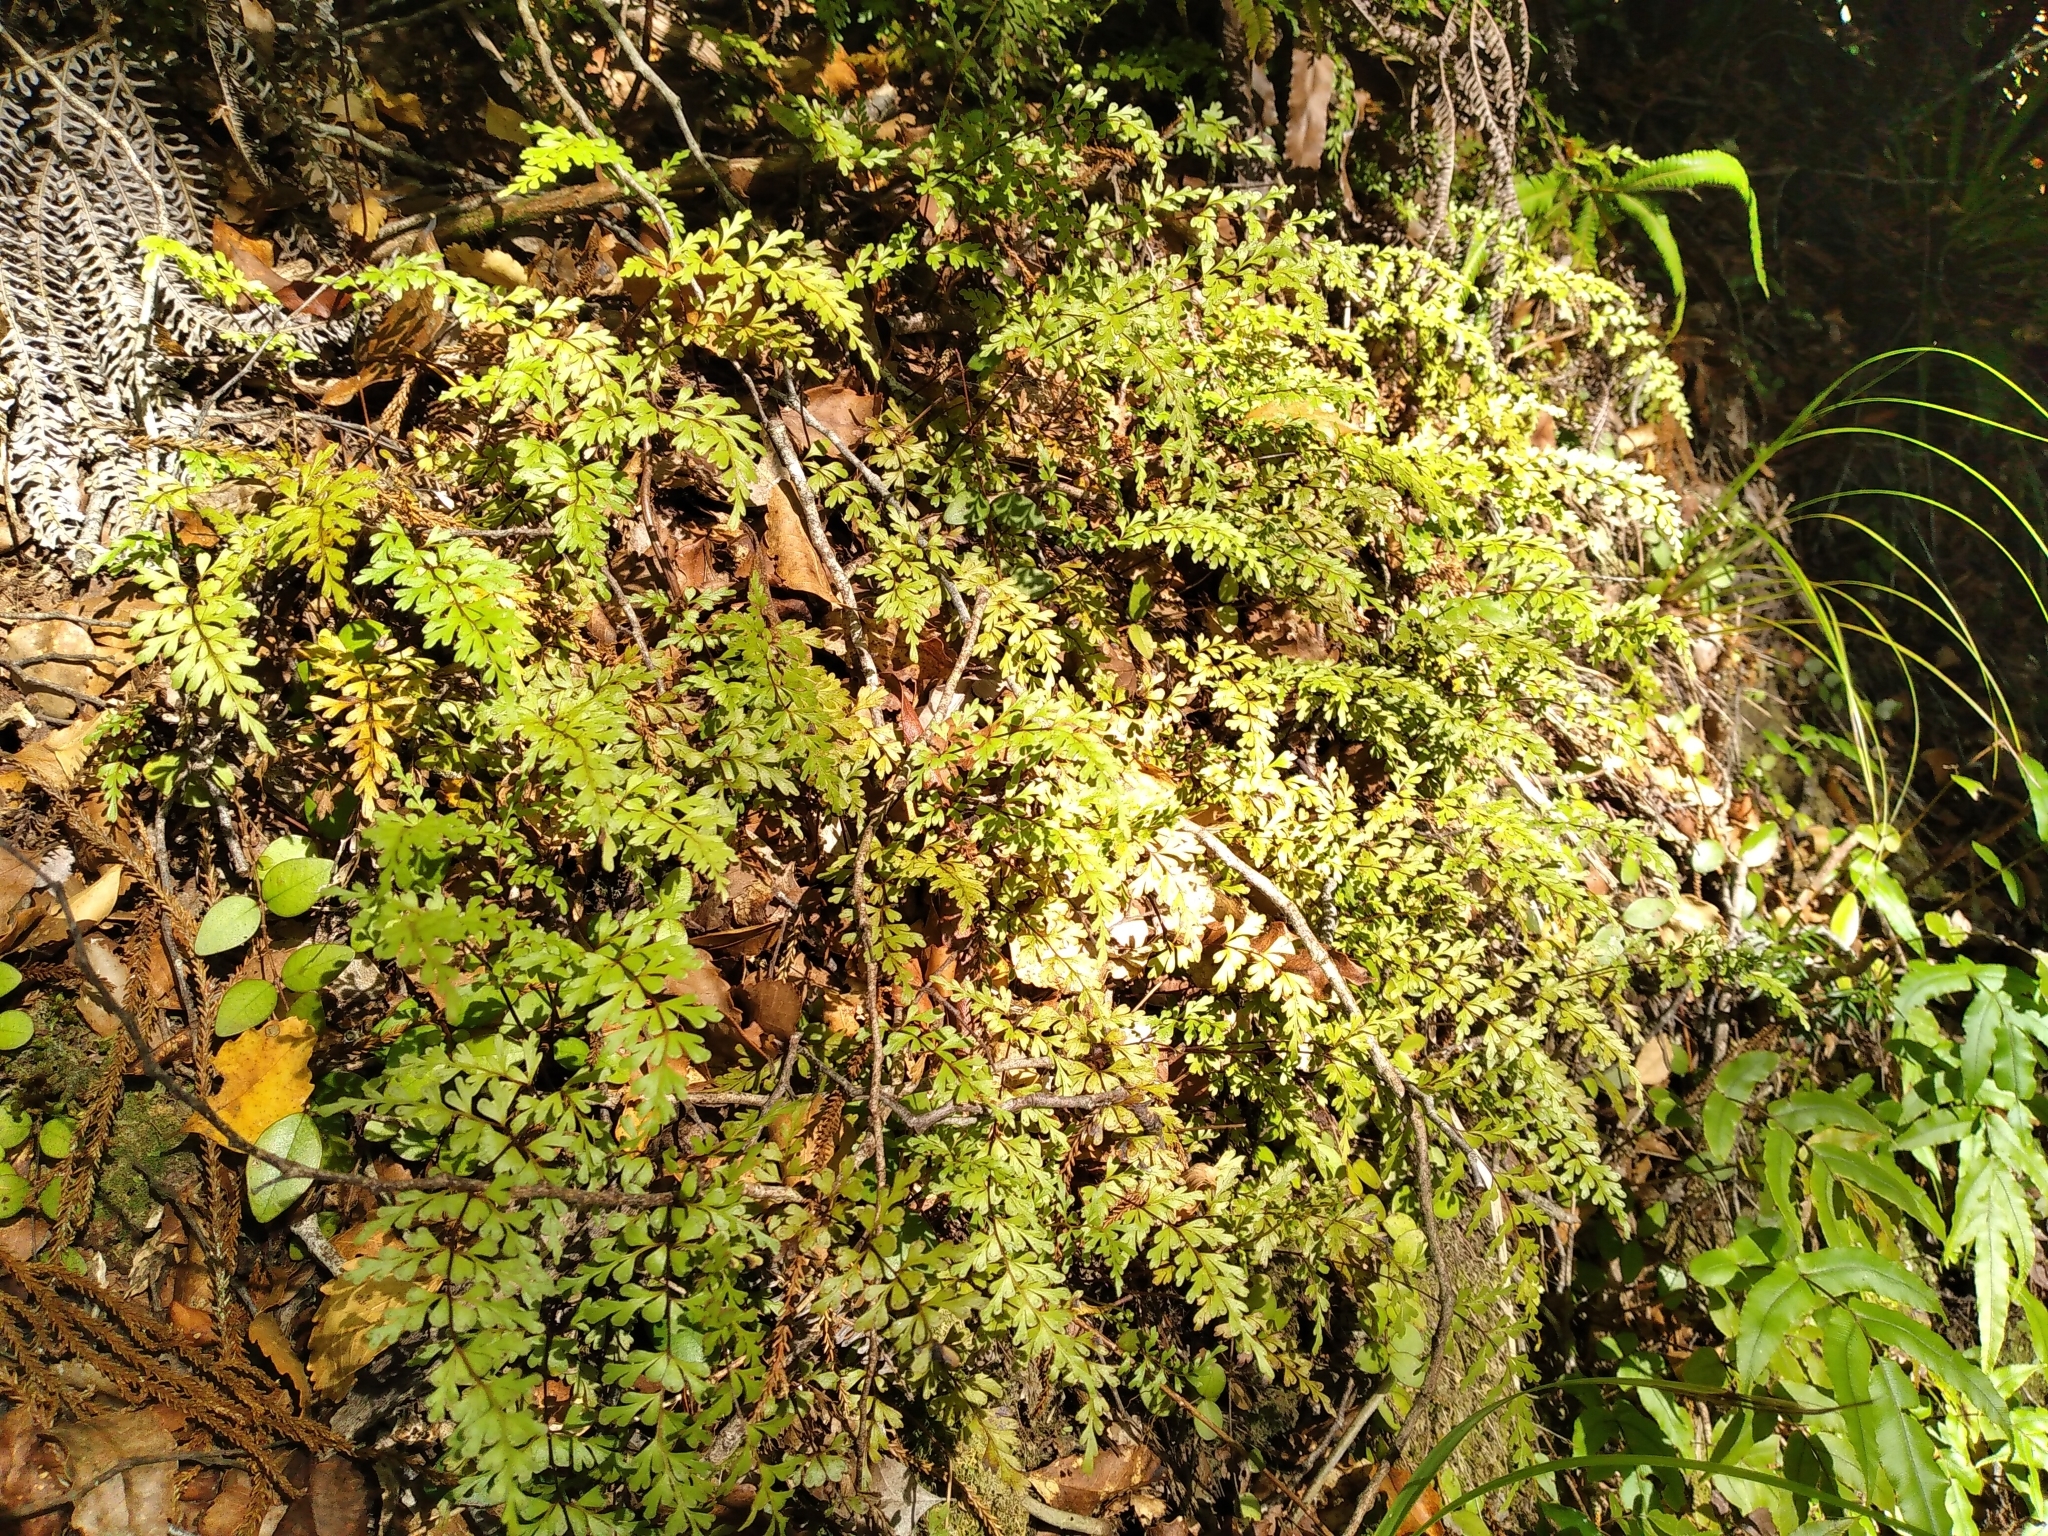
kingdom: Plantae
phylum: Tracheophyta
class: Polypodiopsida
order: Polypodiales
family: Lindsaeaceae
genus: Lindsaea
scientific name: Lindsaea trichomanoides
